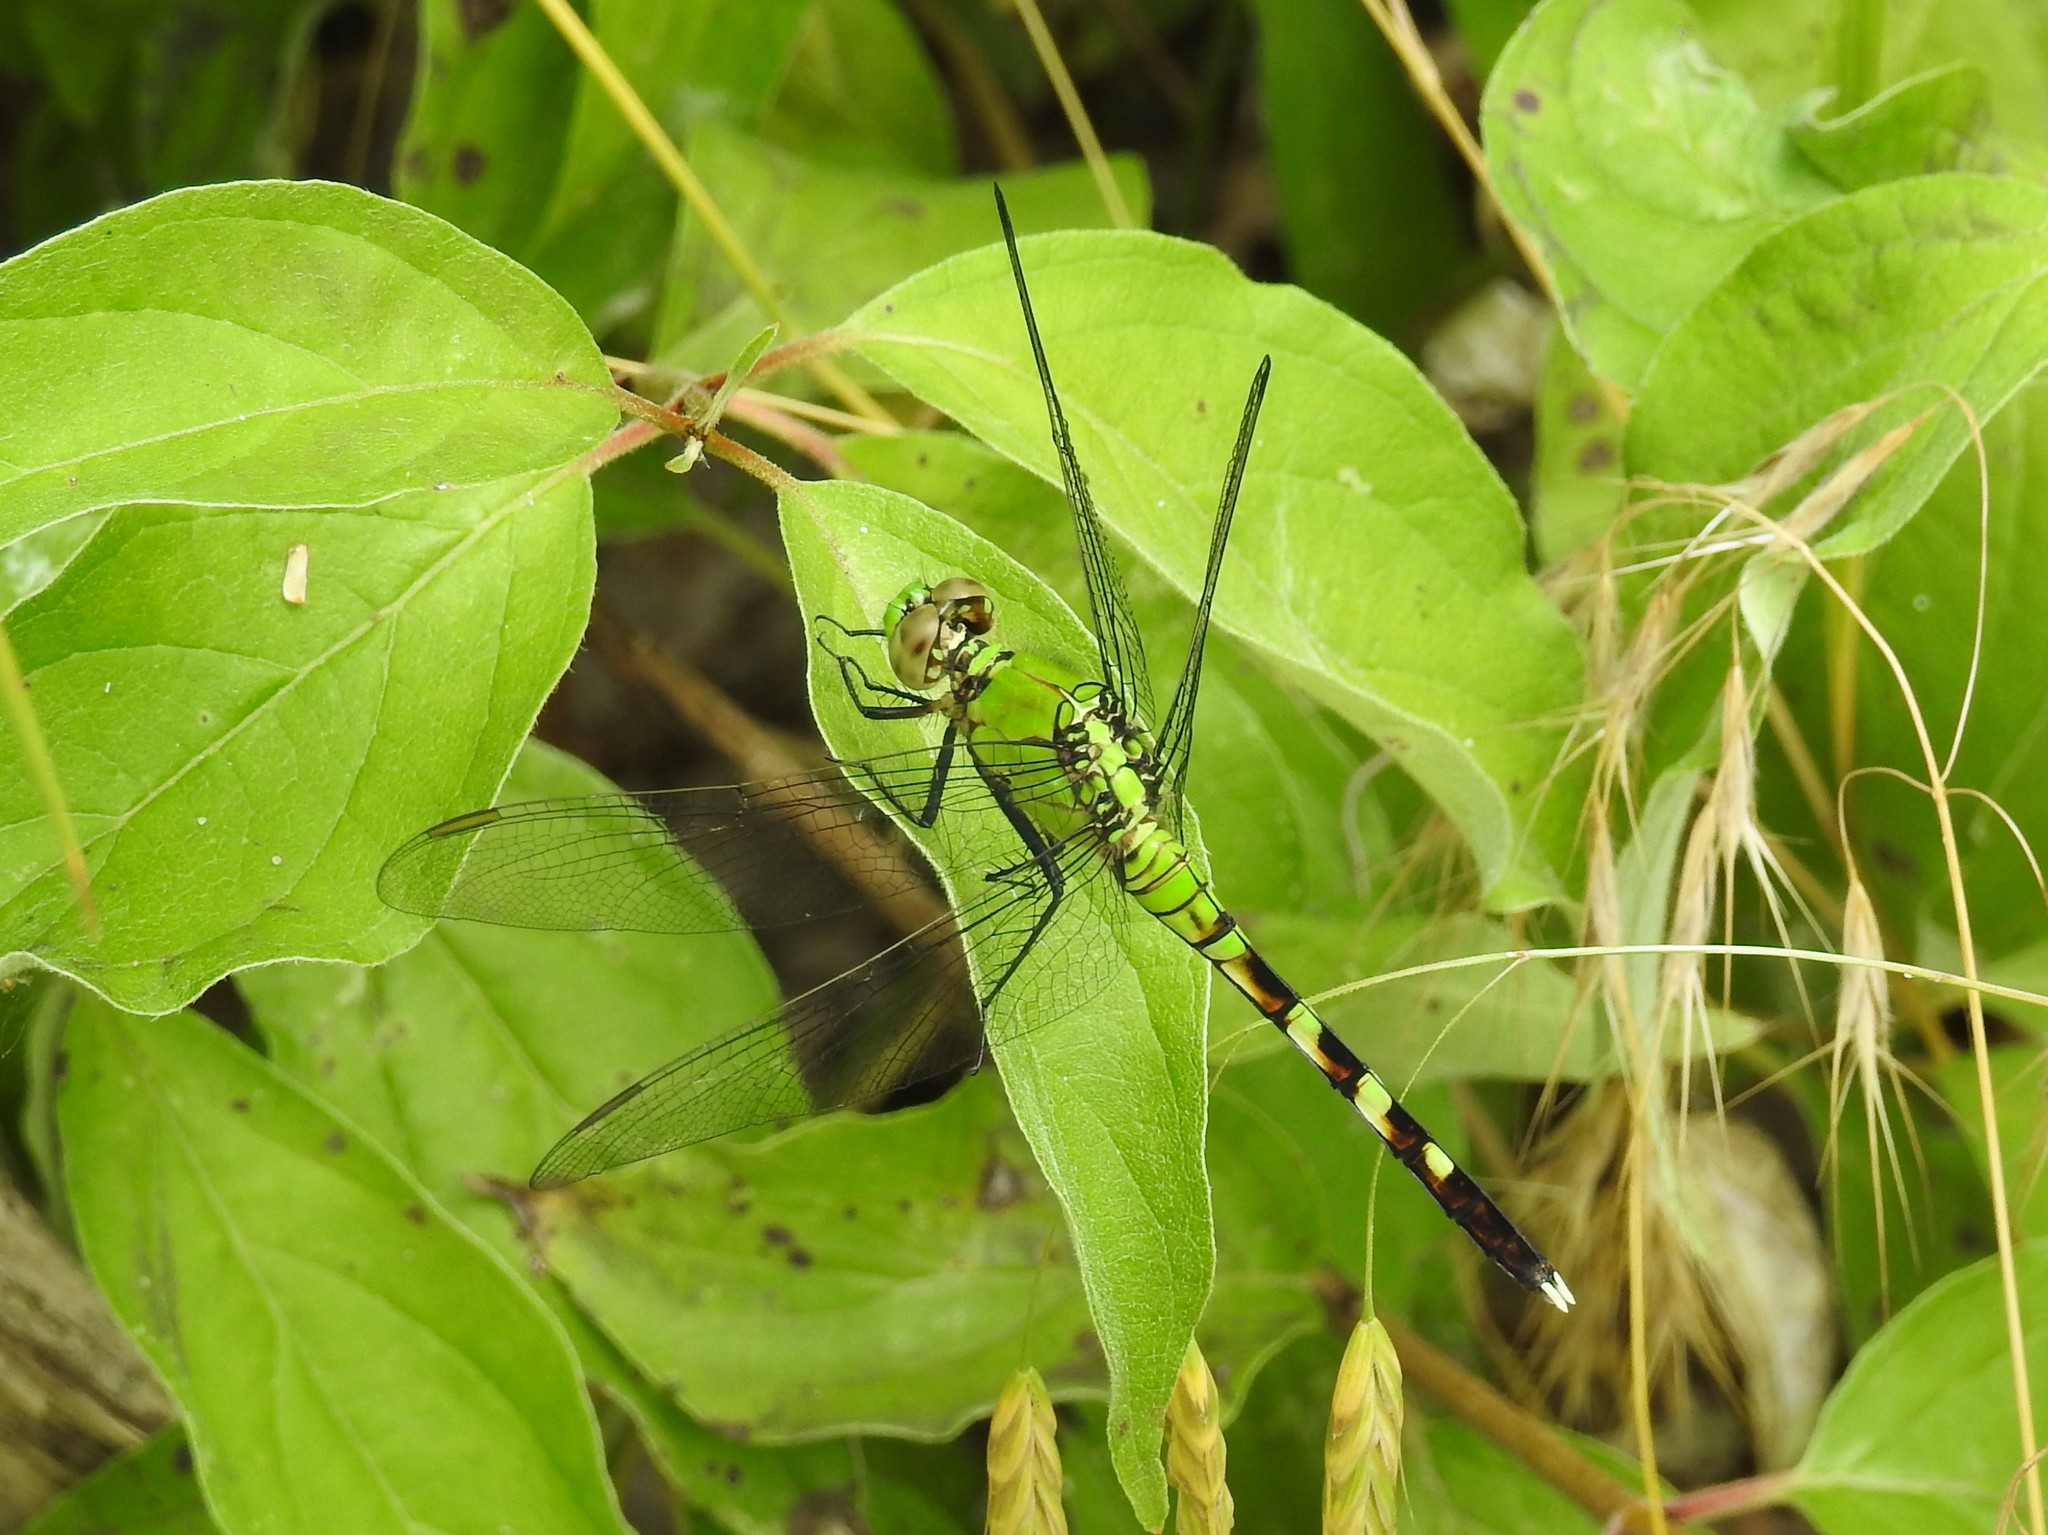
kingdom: Animalia
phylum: Arthropoda
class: Insecta
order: Odonata
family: Libellulidae
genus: Erythemis
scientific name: Erythemis simplicicollis
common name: Eastern pondhawk
